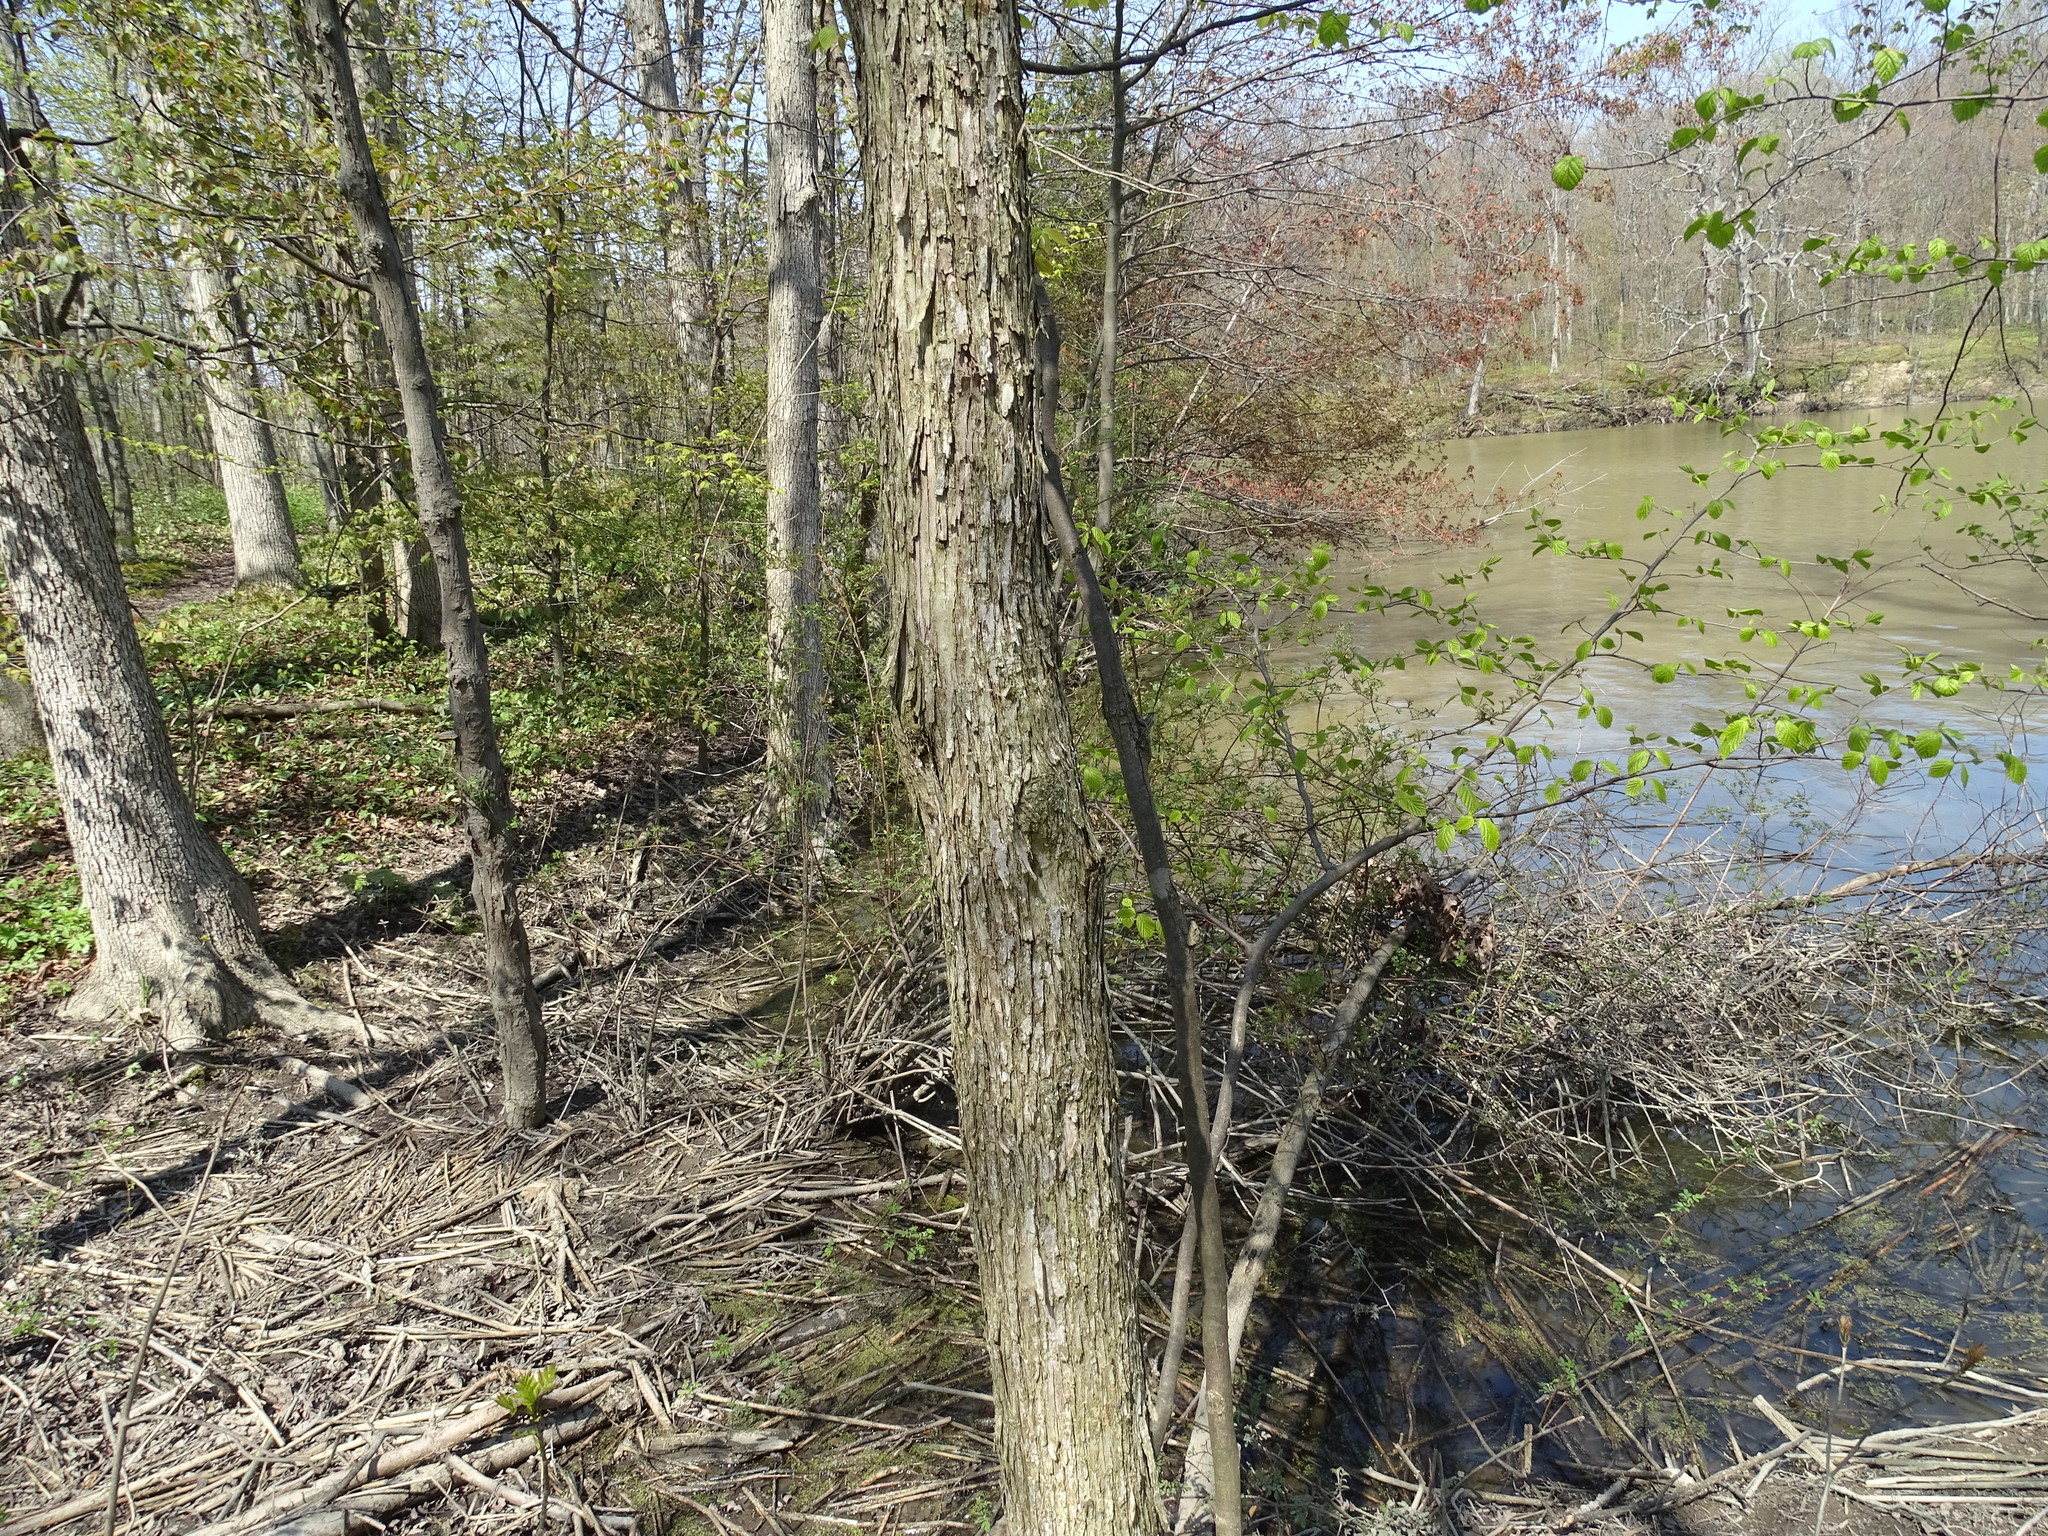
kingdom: Plantae
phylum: Tracheophyta
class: Magnoliopsida
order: Fagales
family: Betulaceae
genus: Ostrya
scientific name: Ostrya virginiana
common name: Ironwood
